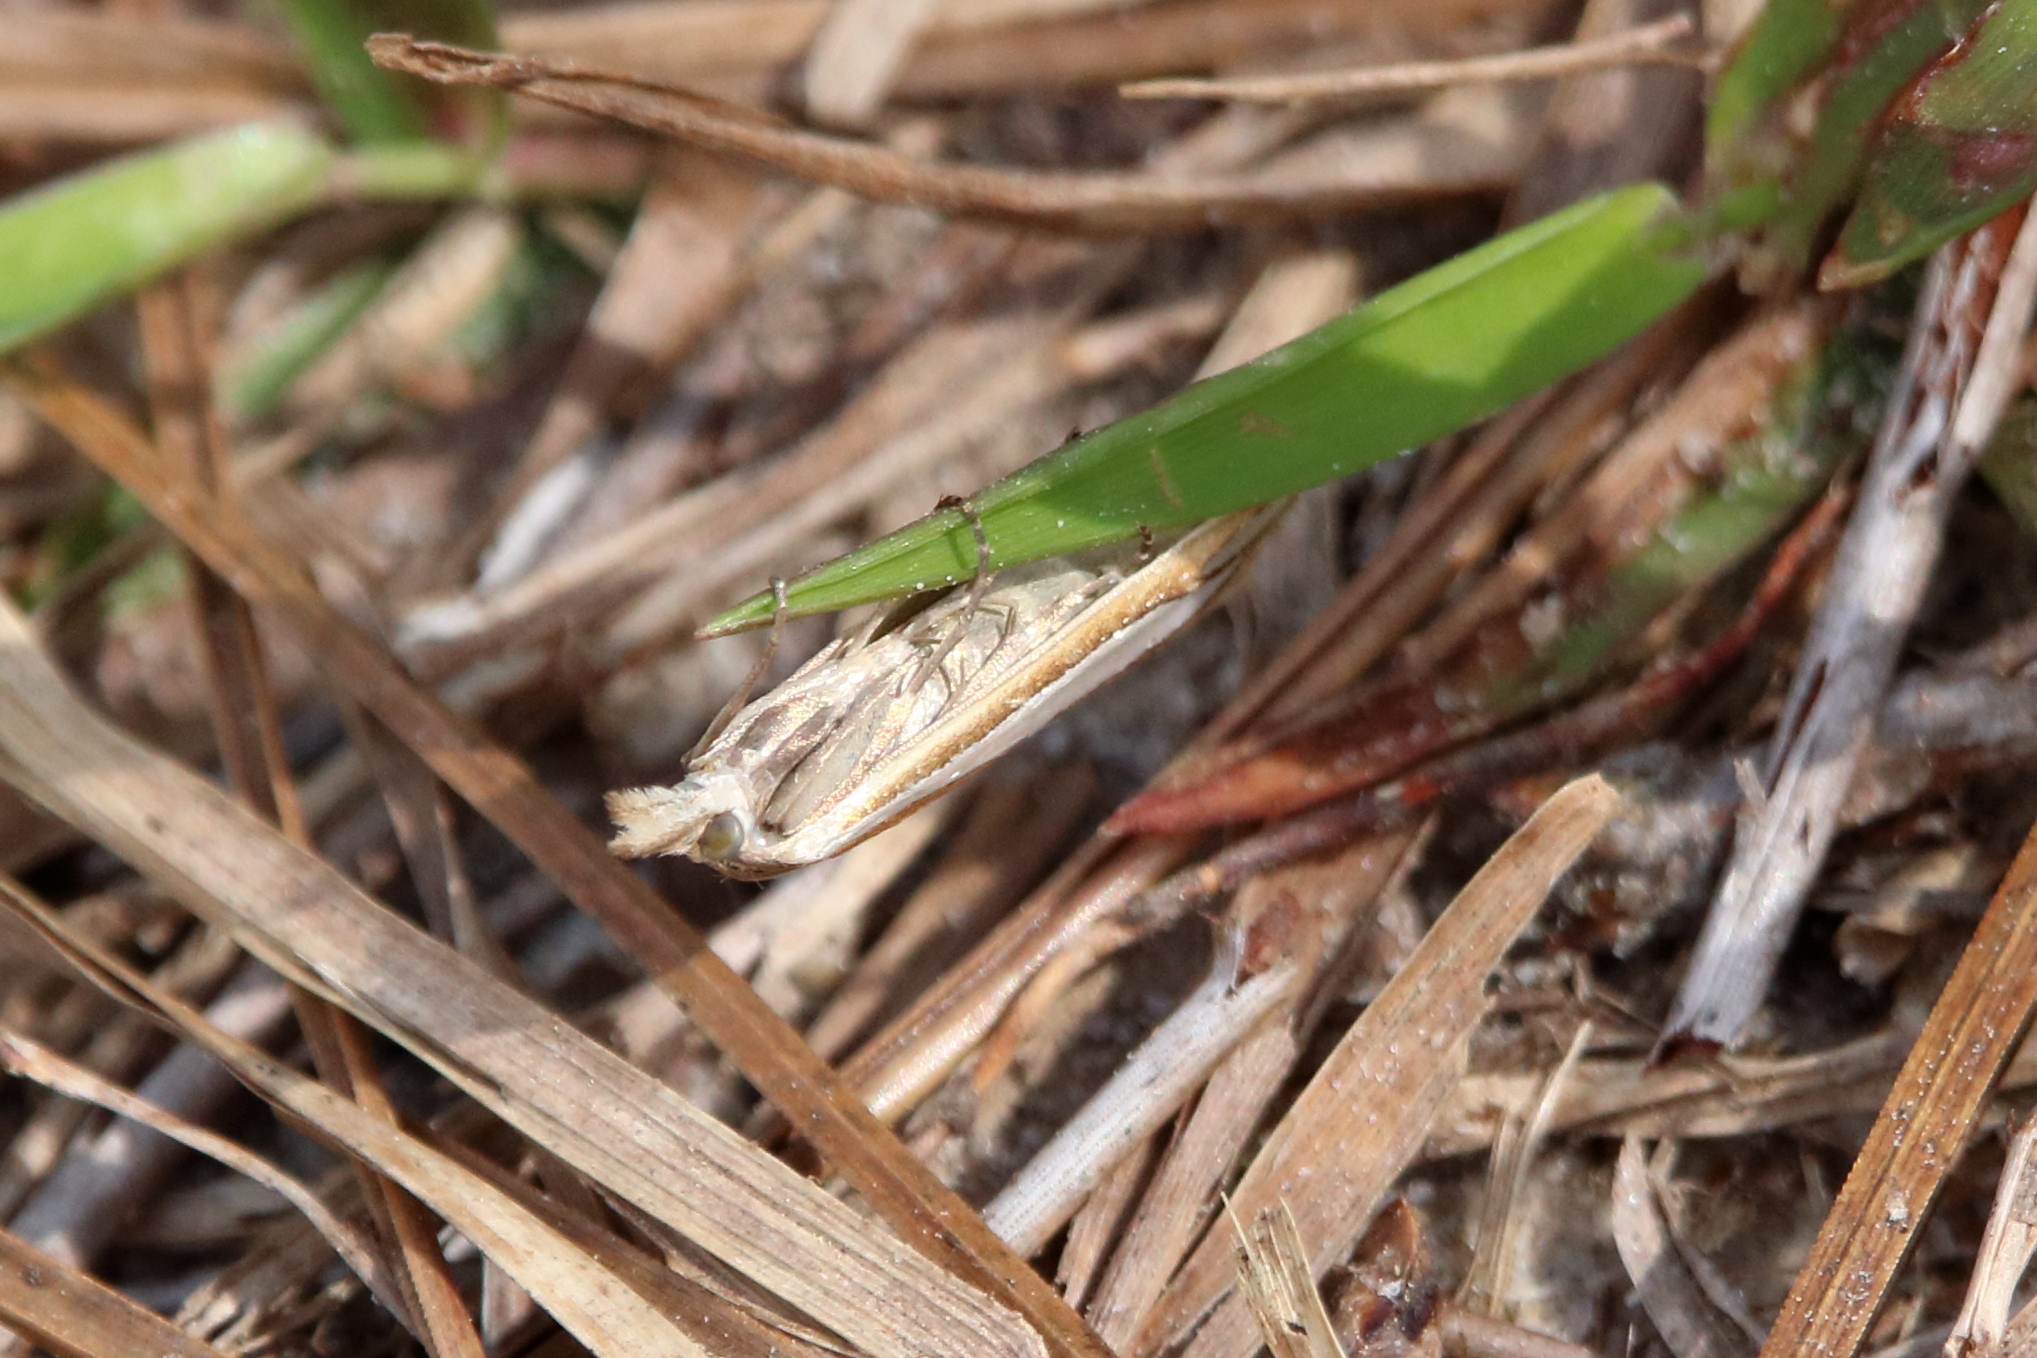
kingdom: Animalia
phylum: Arthropoda
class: Insecta
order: Lepidoptera
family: Crambidae
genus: Crambus
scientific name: Crambus satrapellus
